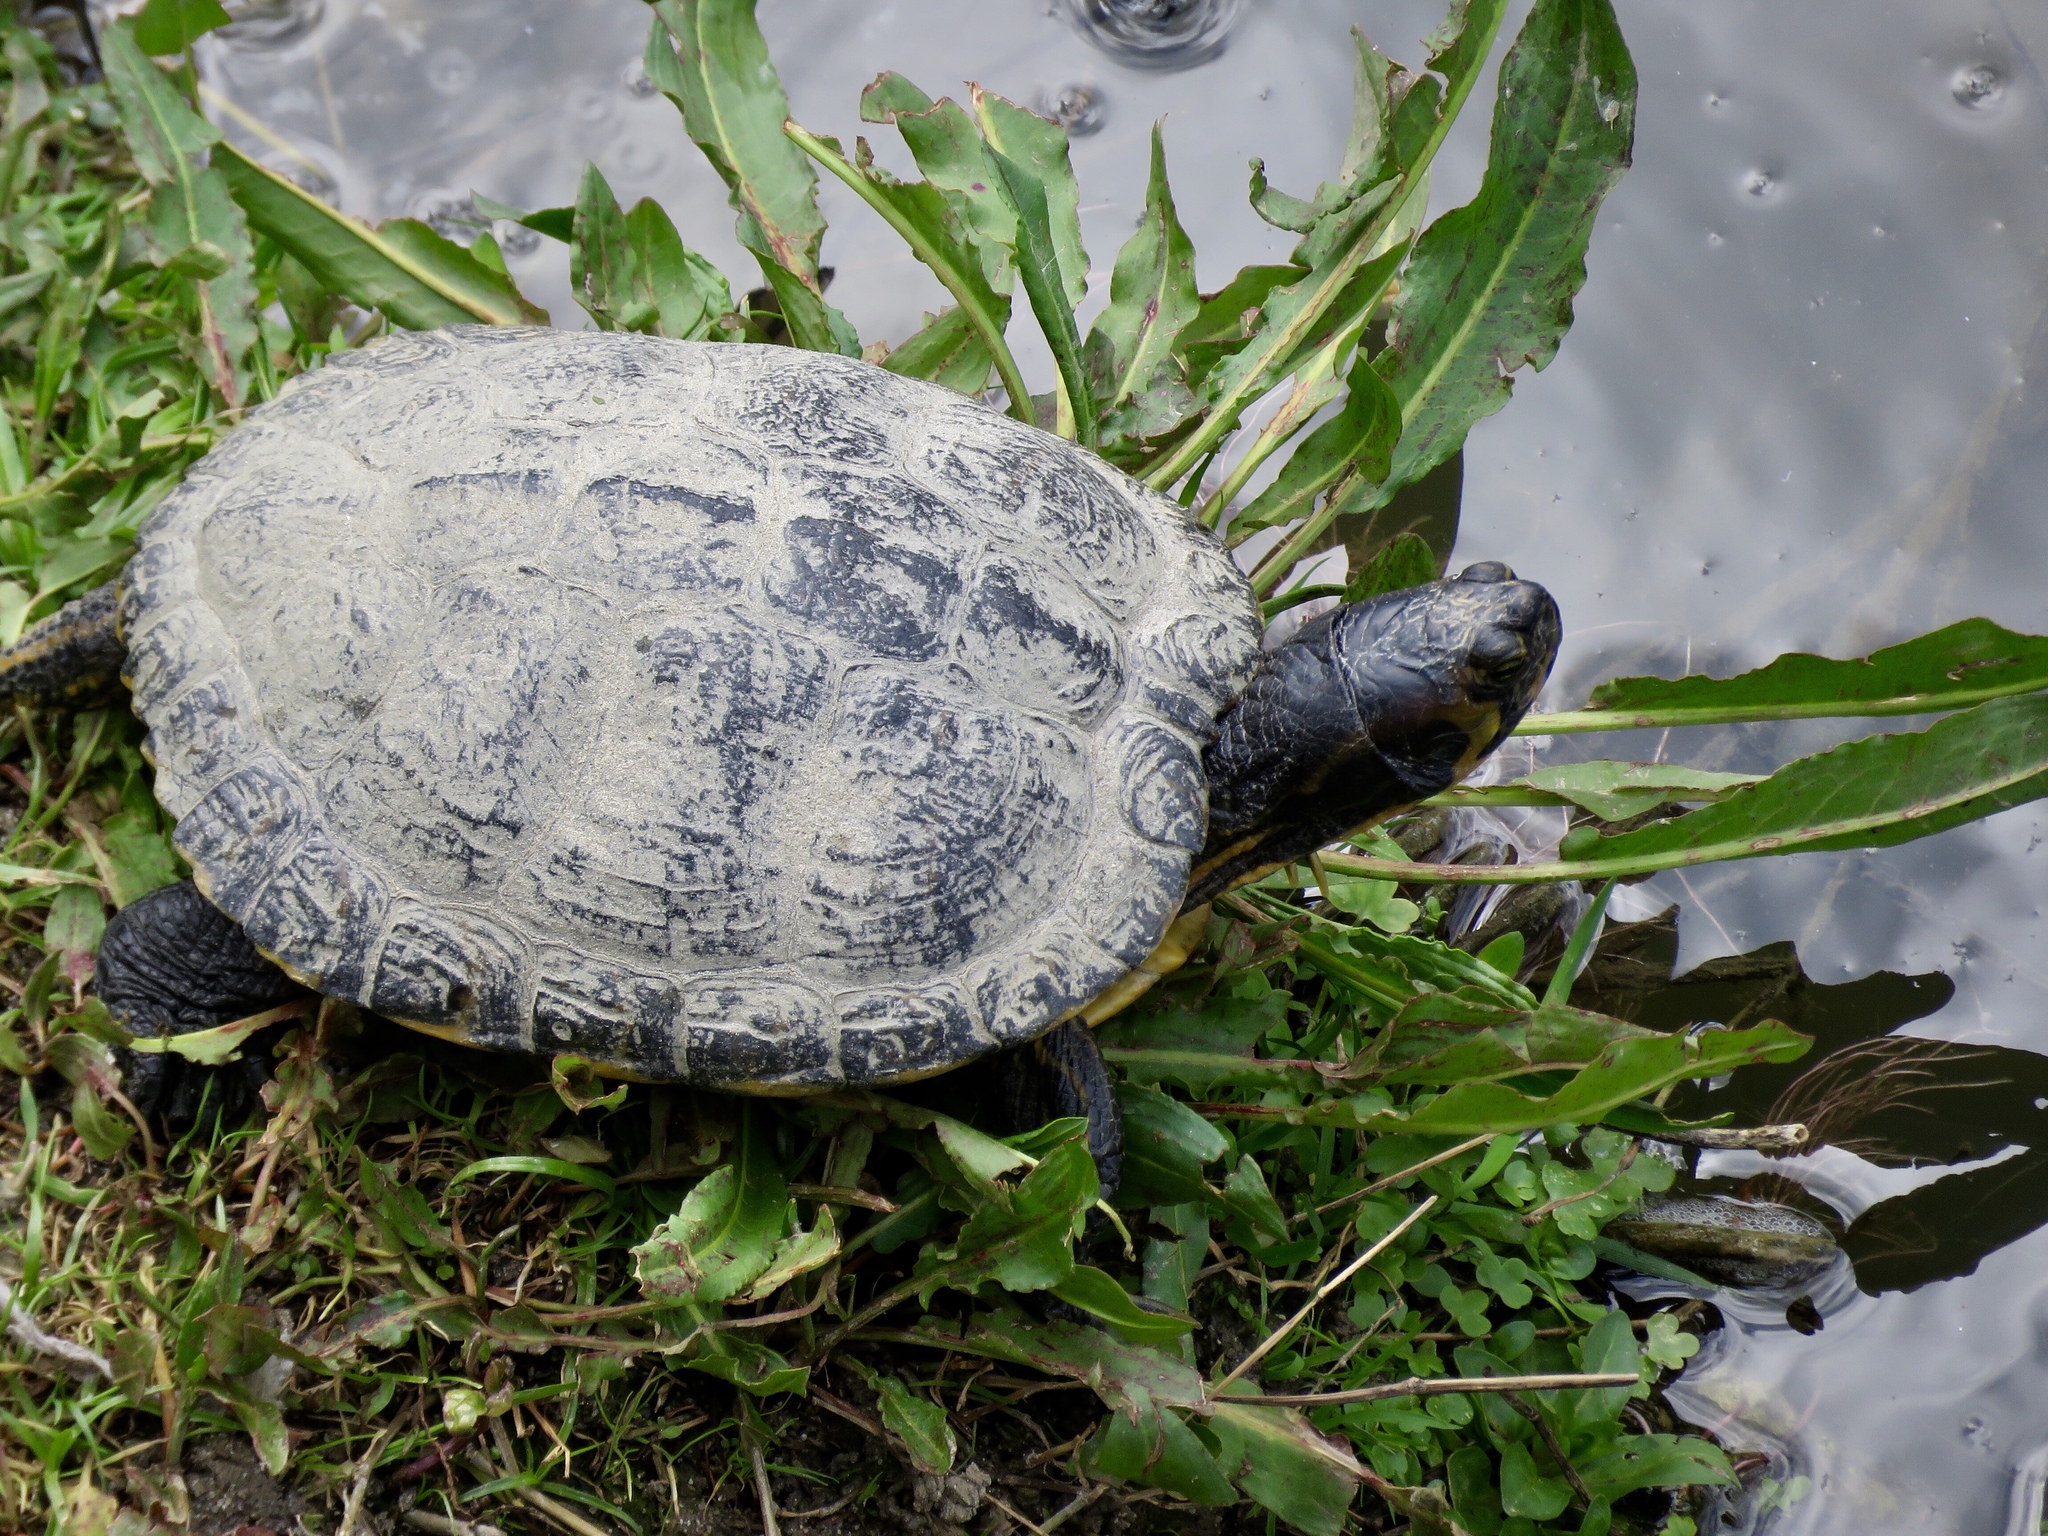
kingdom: Animalia
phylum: Chordata
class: Testudines
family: Emydidae
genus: Trachemys
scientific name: Trachemys scripta
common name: Slider
